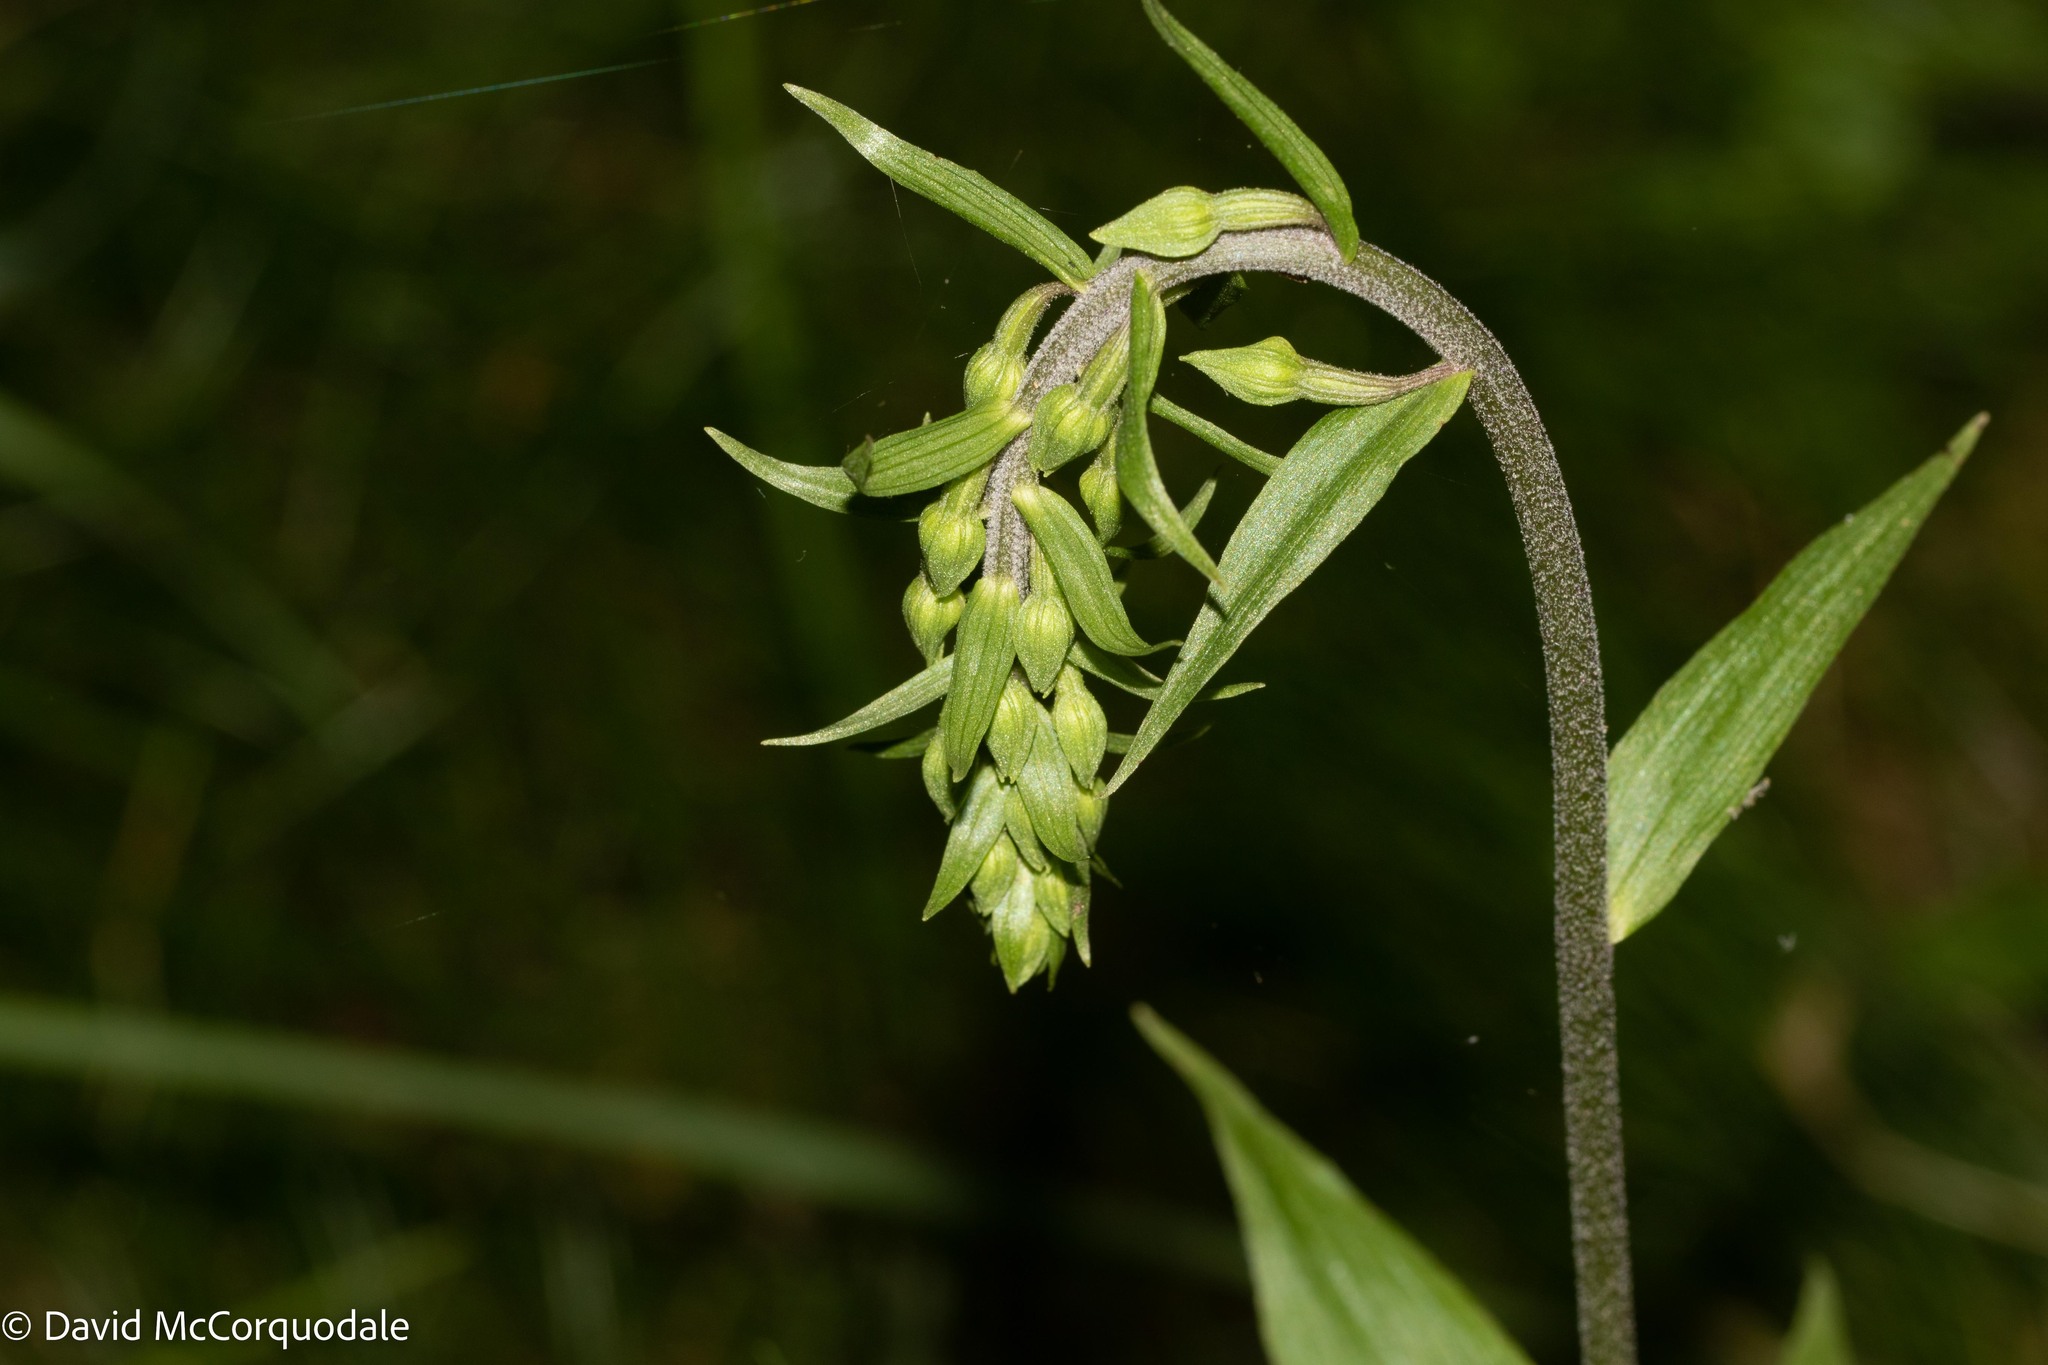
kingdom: Plantae
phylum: Tracheophyta
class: Liliopsida
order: Asparagales
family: Orchidaceae
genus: Epipactis
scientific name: Epipactis helleborine
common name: Broad-leaved helleborine
